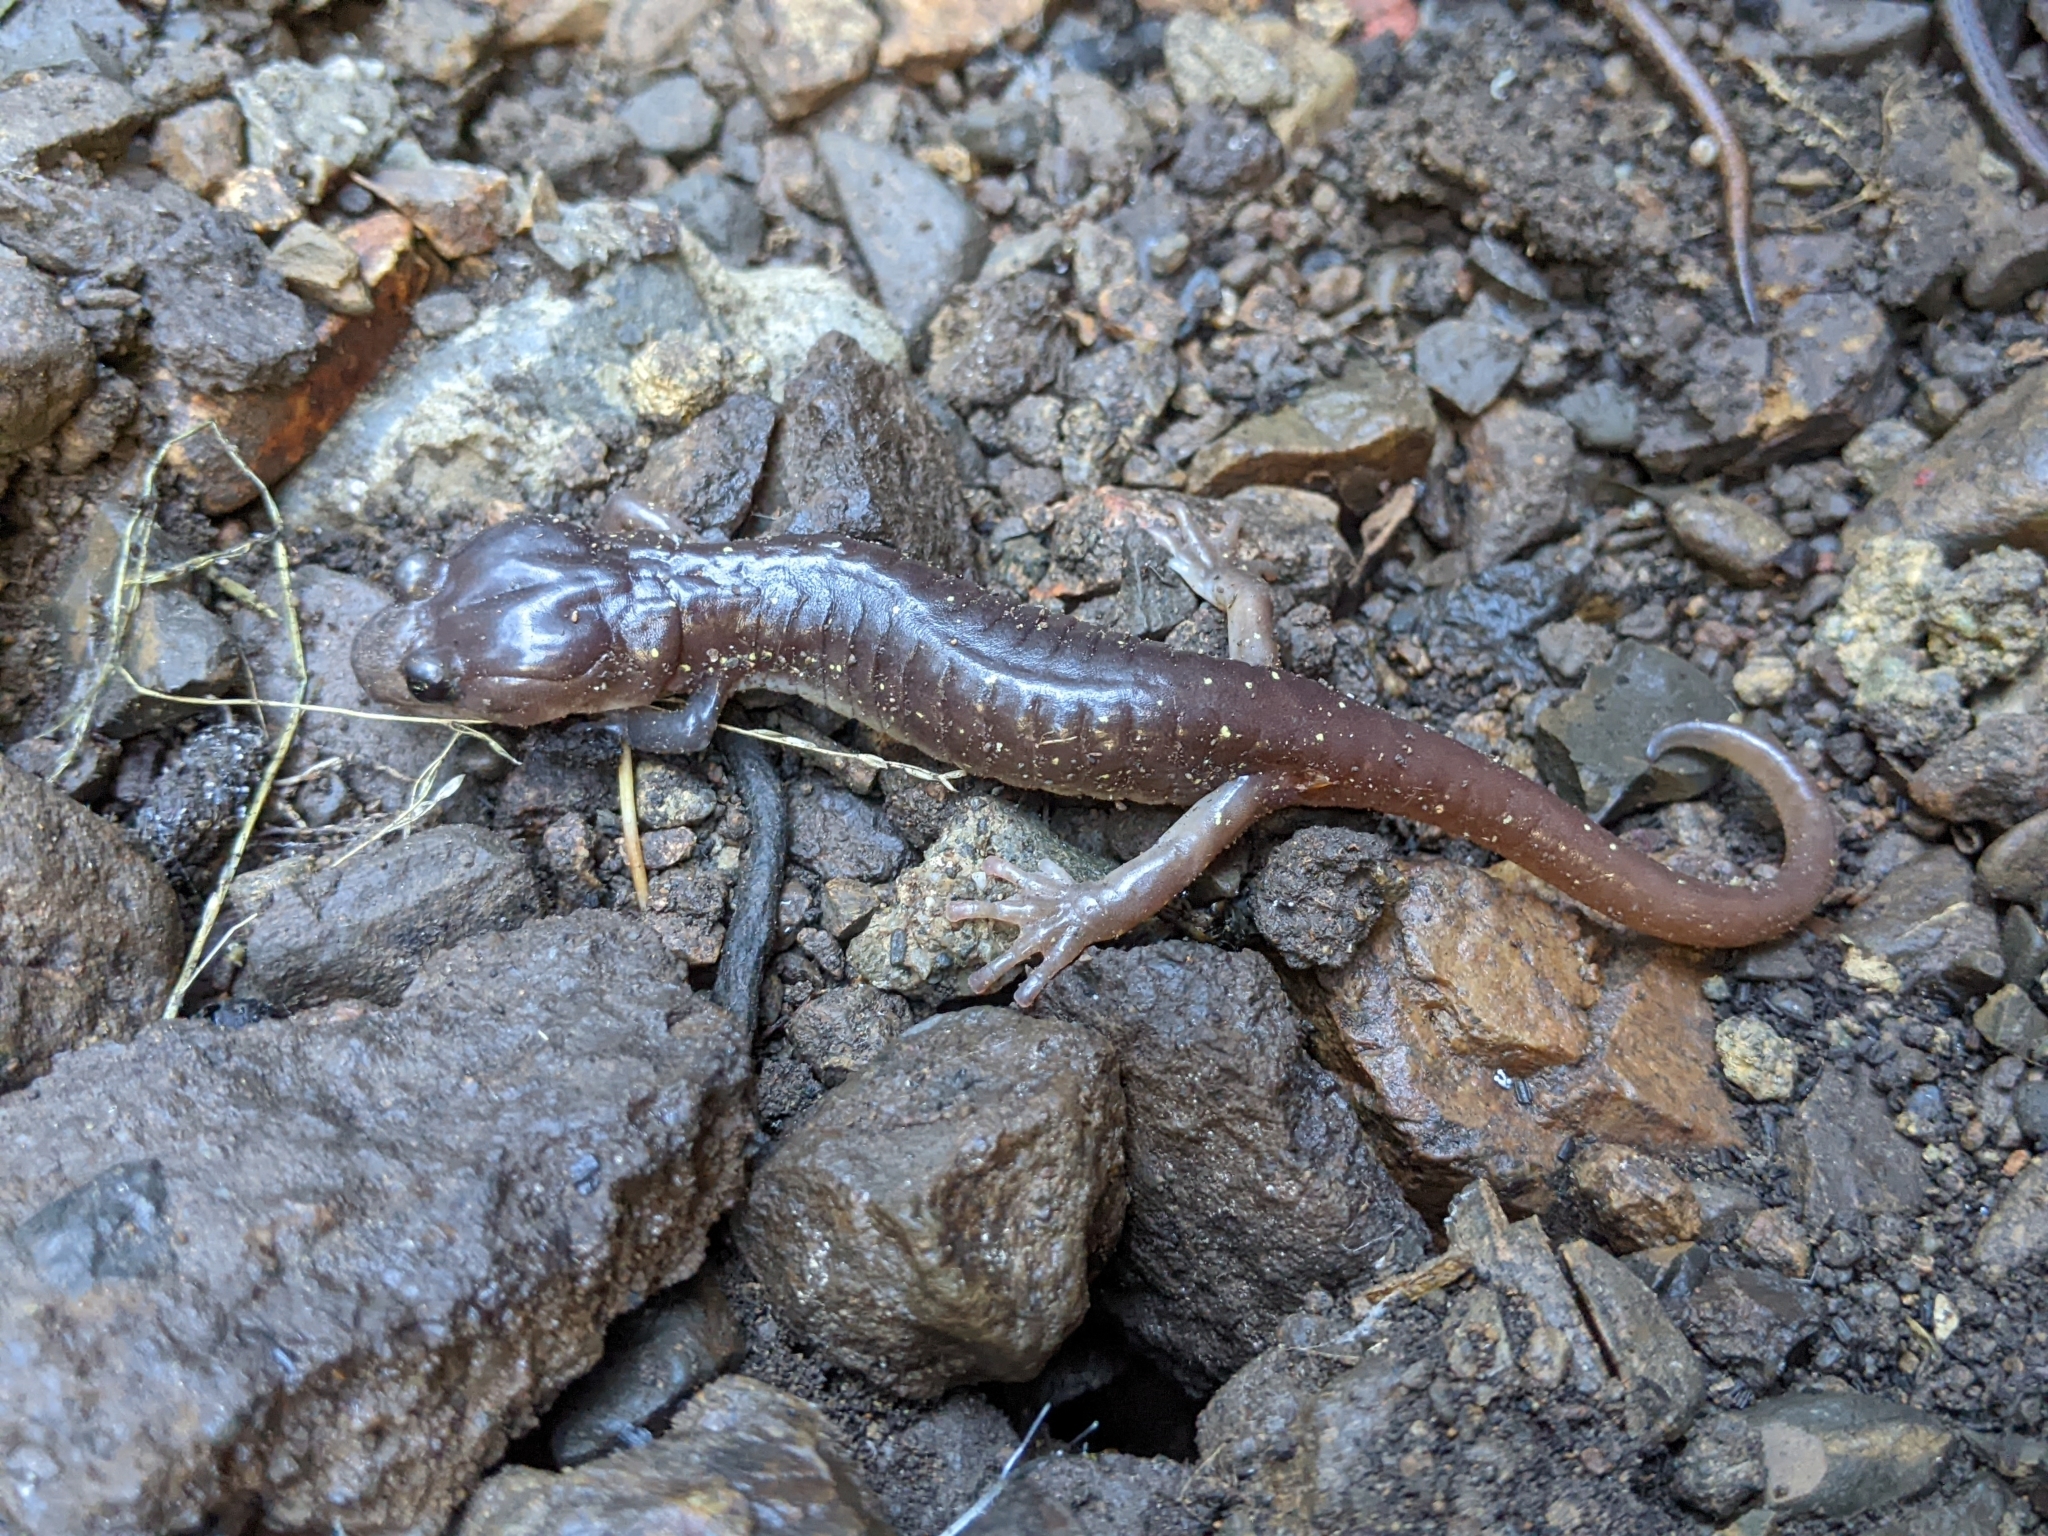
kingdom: Animalia
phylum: Chordata
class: Amphibia
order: Caudata
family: Plethodontidae
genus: Aneides
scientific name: Aneides lugubris
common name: Arboreal salamander
